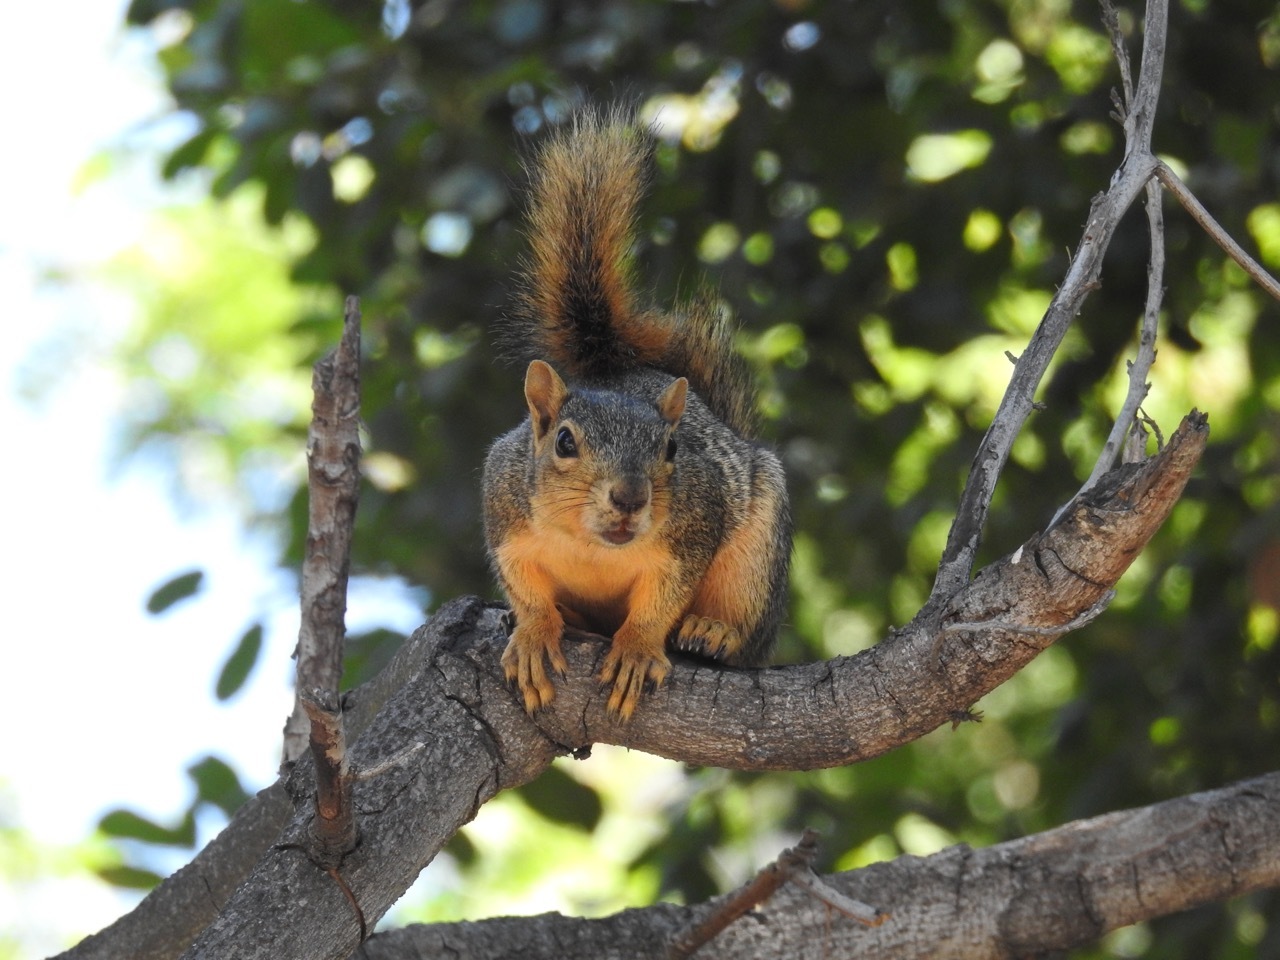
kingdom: Animalia
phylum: Chordata
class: Mammalia
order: Rodentia
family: Sciuridae
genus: Sciurus
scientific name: Sciurus niger
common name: Fox squirrel
